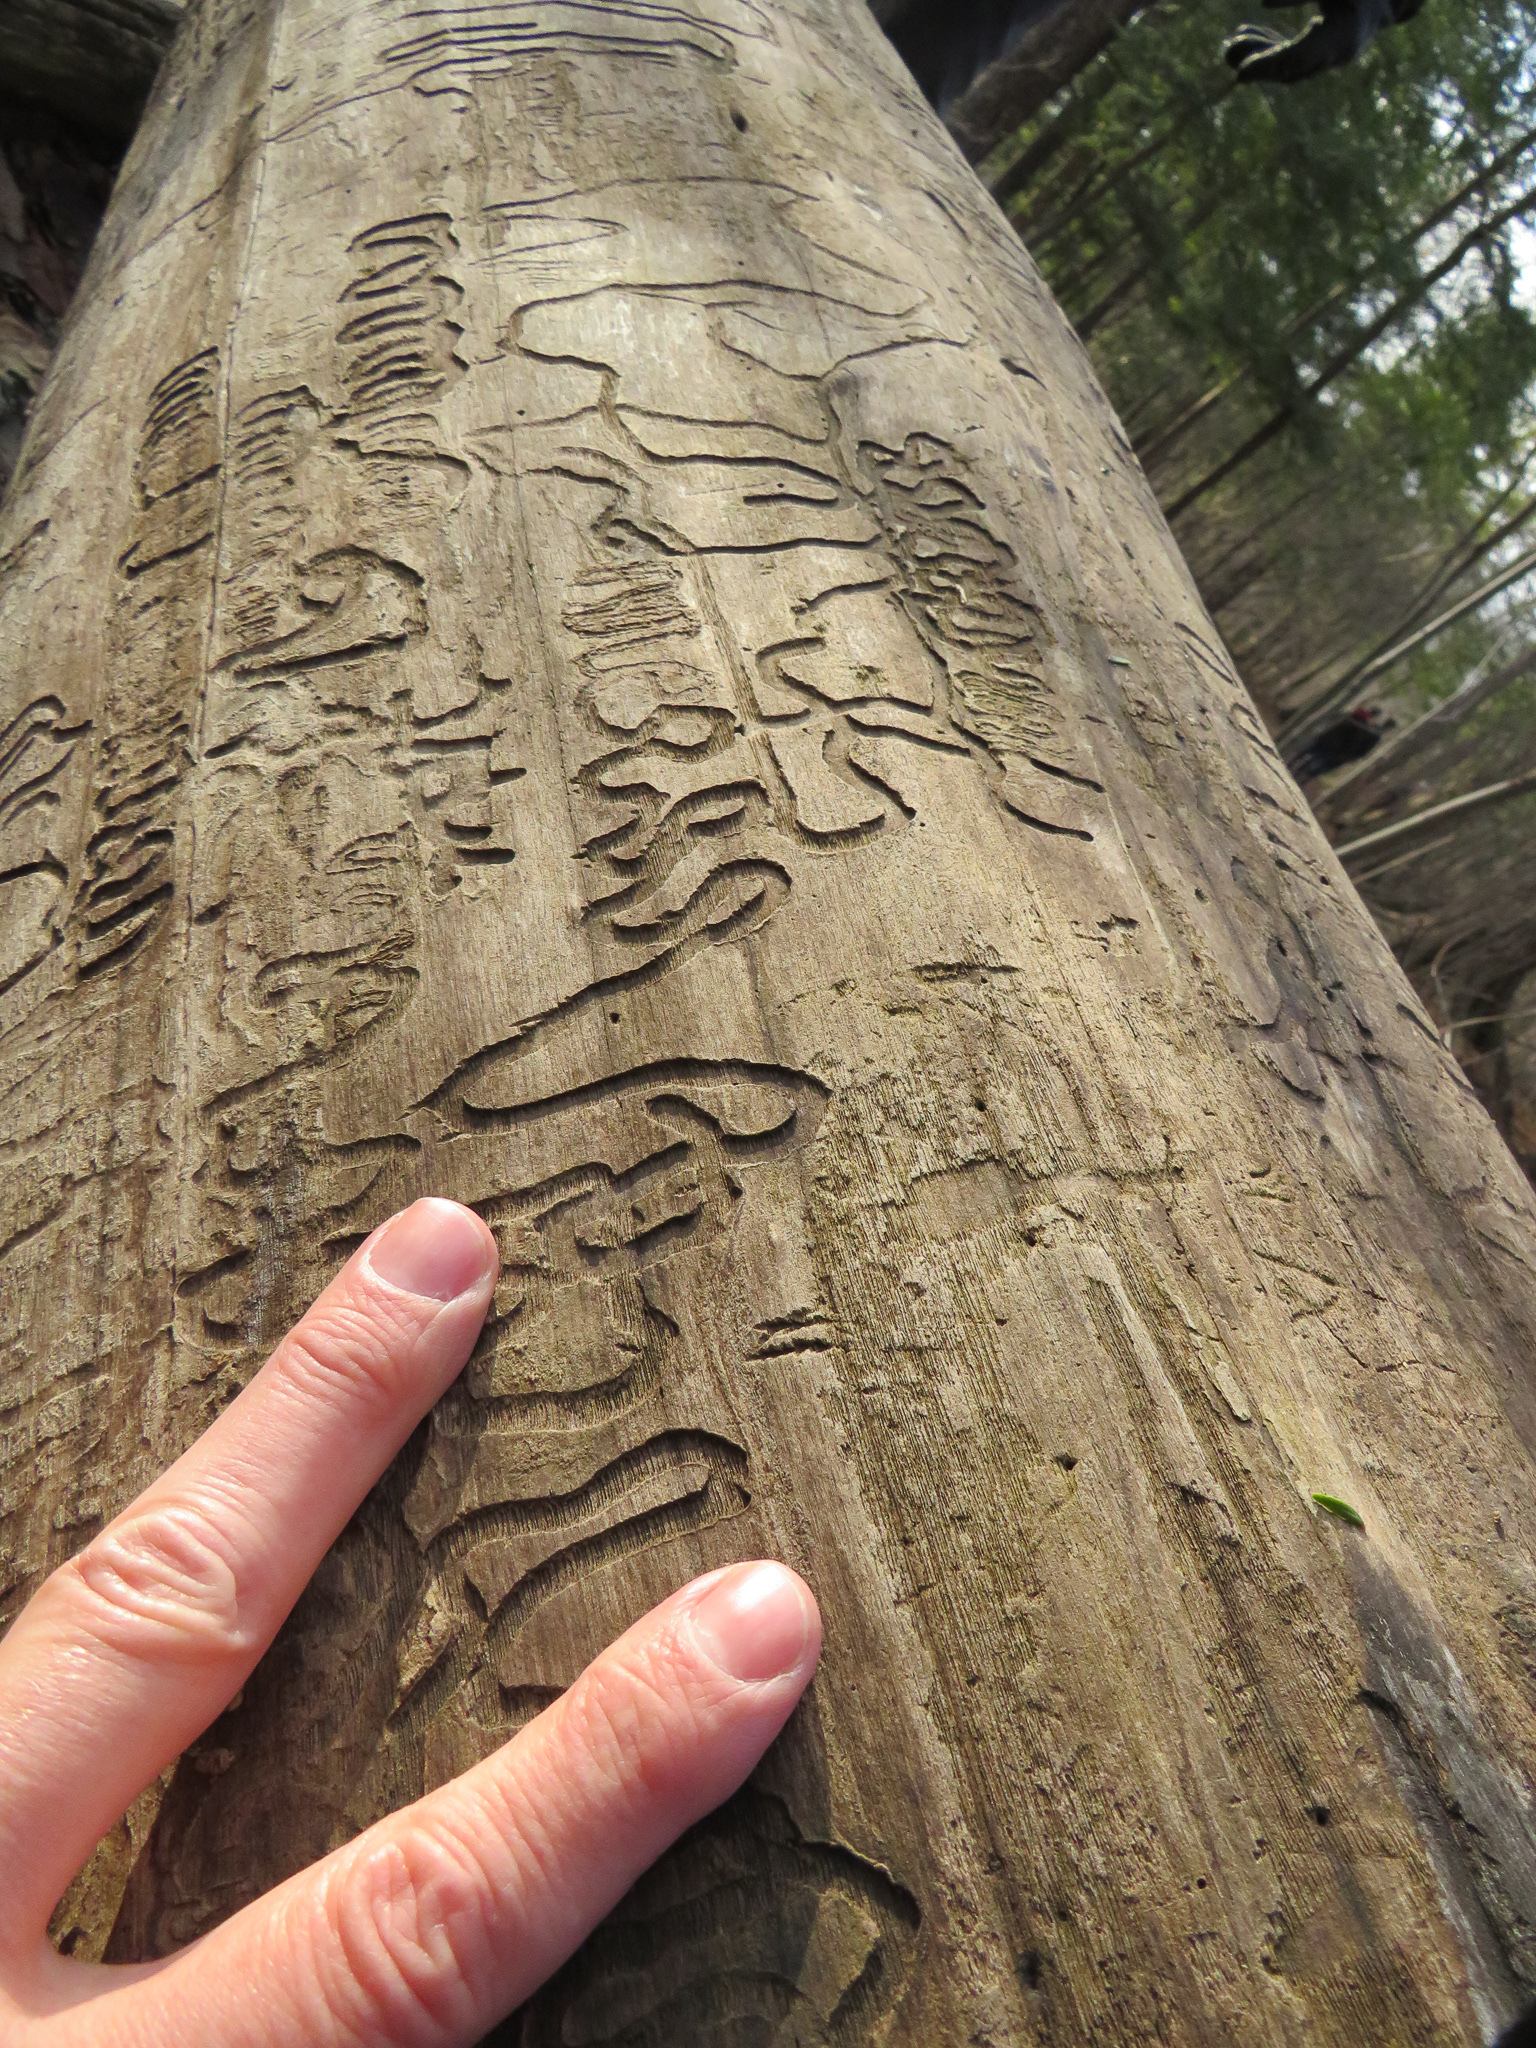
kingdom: Animalia
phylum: Arthropoda
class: Insecta
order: Coleoptera
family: Buprestidae
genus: Agrilus
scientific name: Agrilus planipennis
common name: Emerald ash borer
